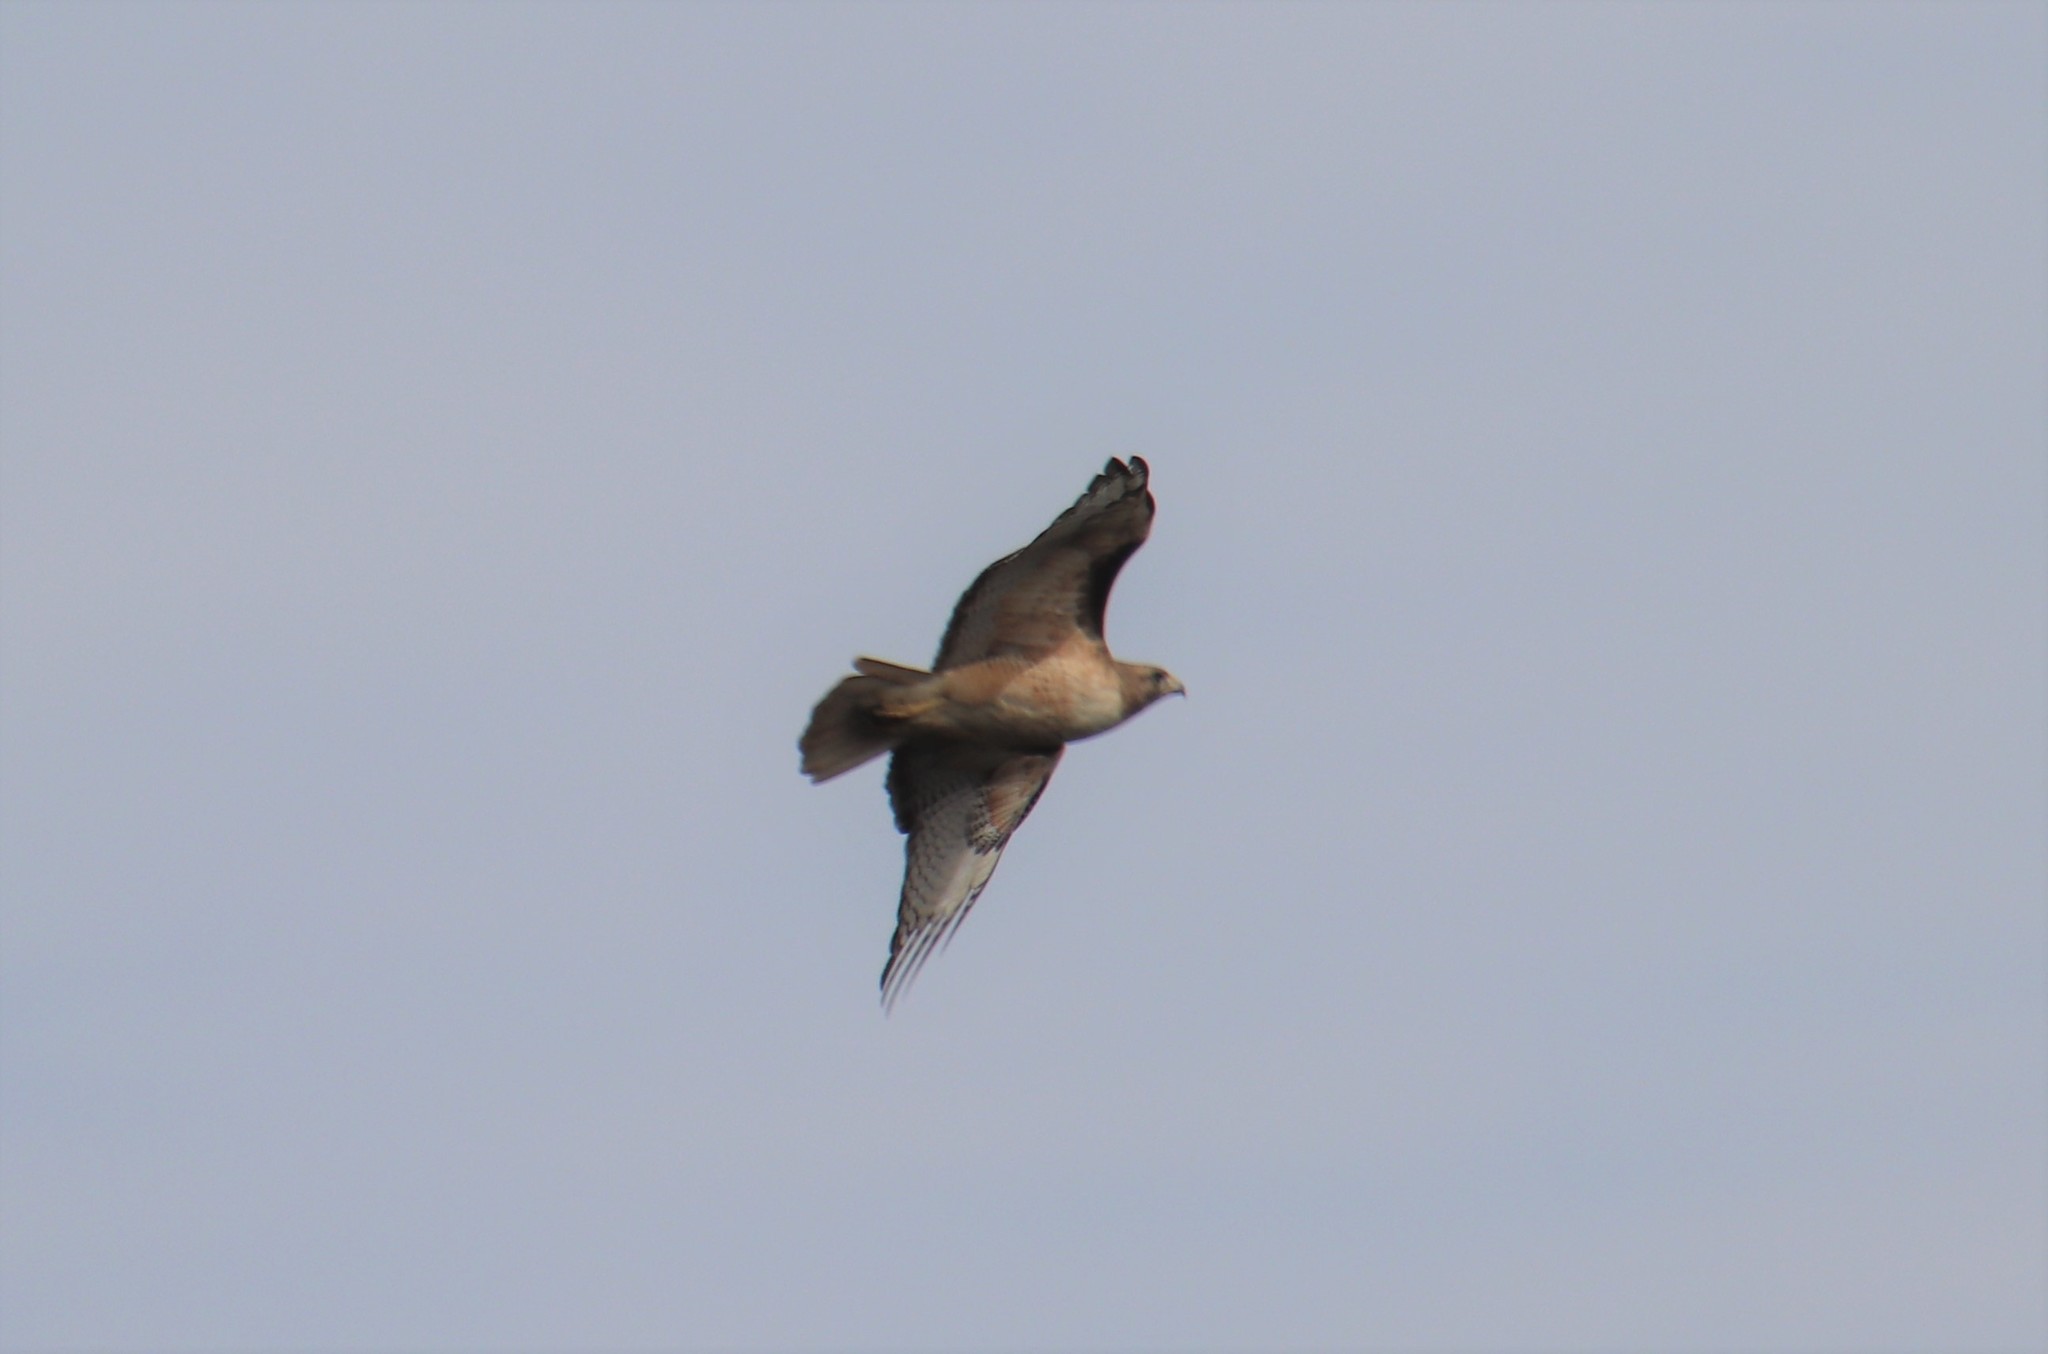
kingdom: Animalia
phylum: Chordata
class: Aves
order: Accipitriformes
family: Accipitridae
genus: Buteo
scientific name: Buteo jamaicensis
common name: Red-tailed hawk
